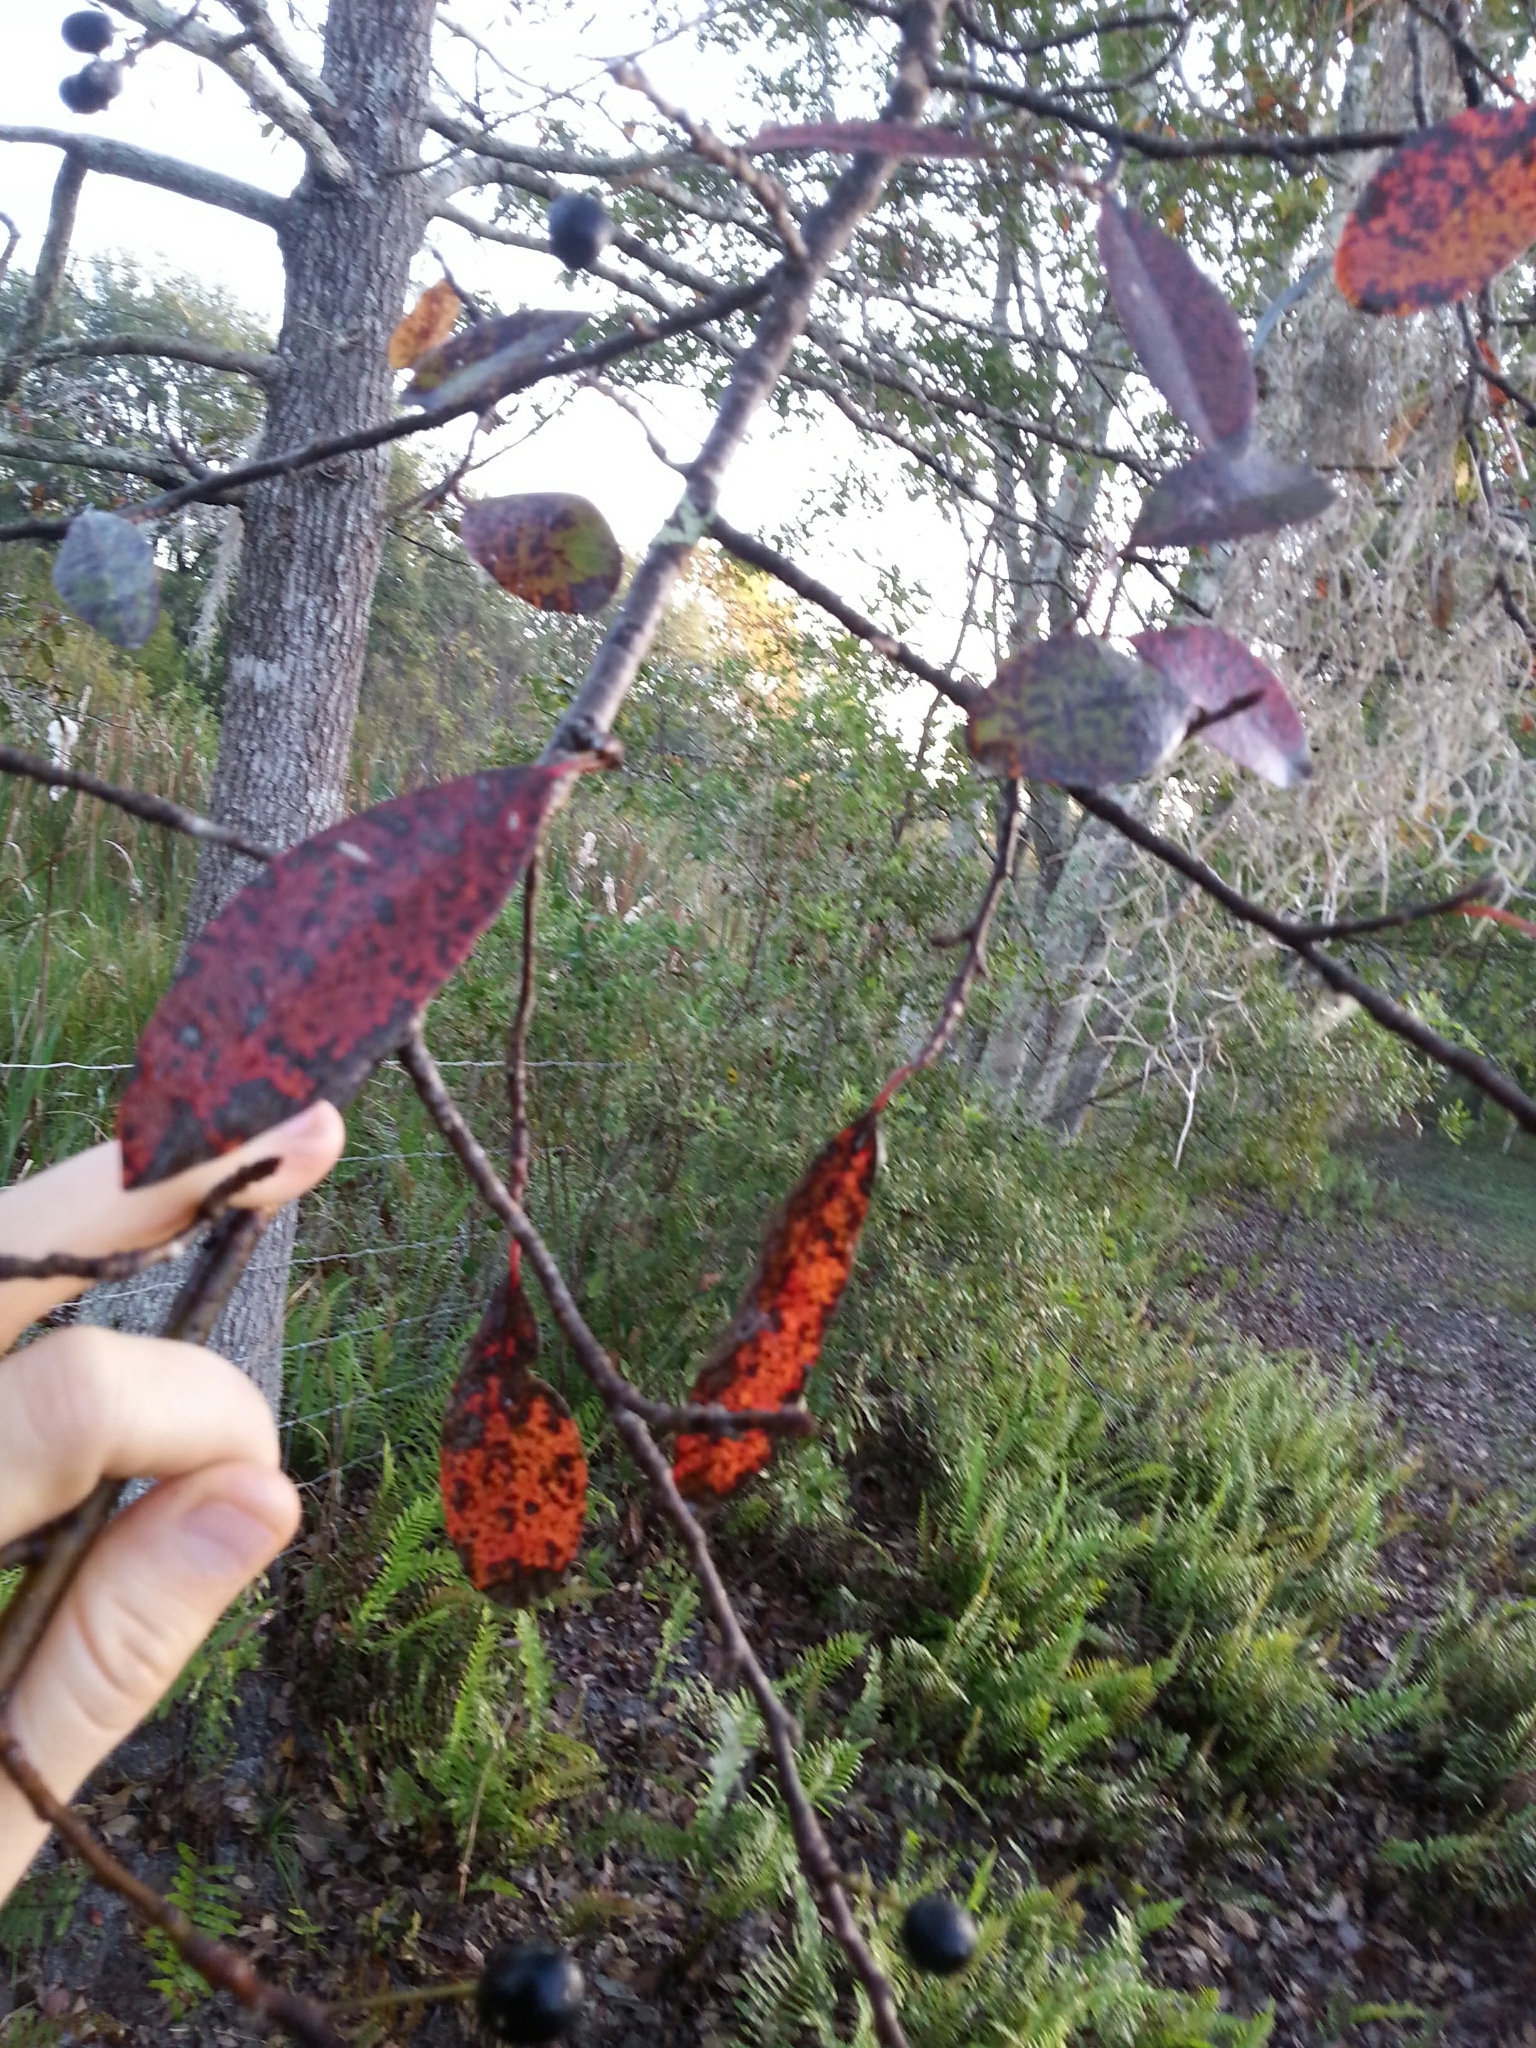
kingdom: Plantae
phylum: Tracheophyta
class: Magnoliopsida
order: Cornales
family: Nyssaceae
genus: Nyssa
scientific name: Nyssa biflora
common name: Swamp blackgum
